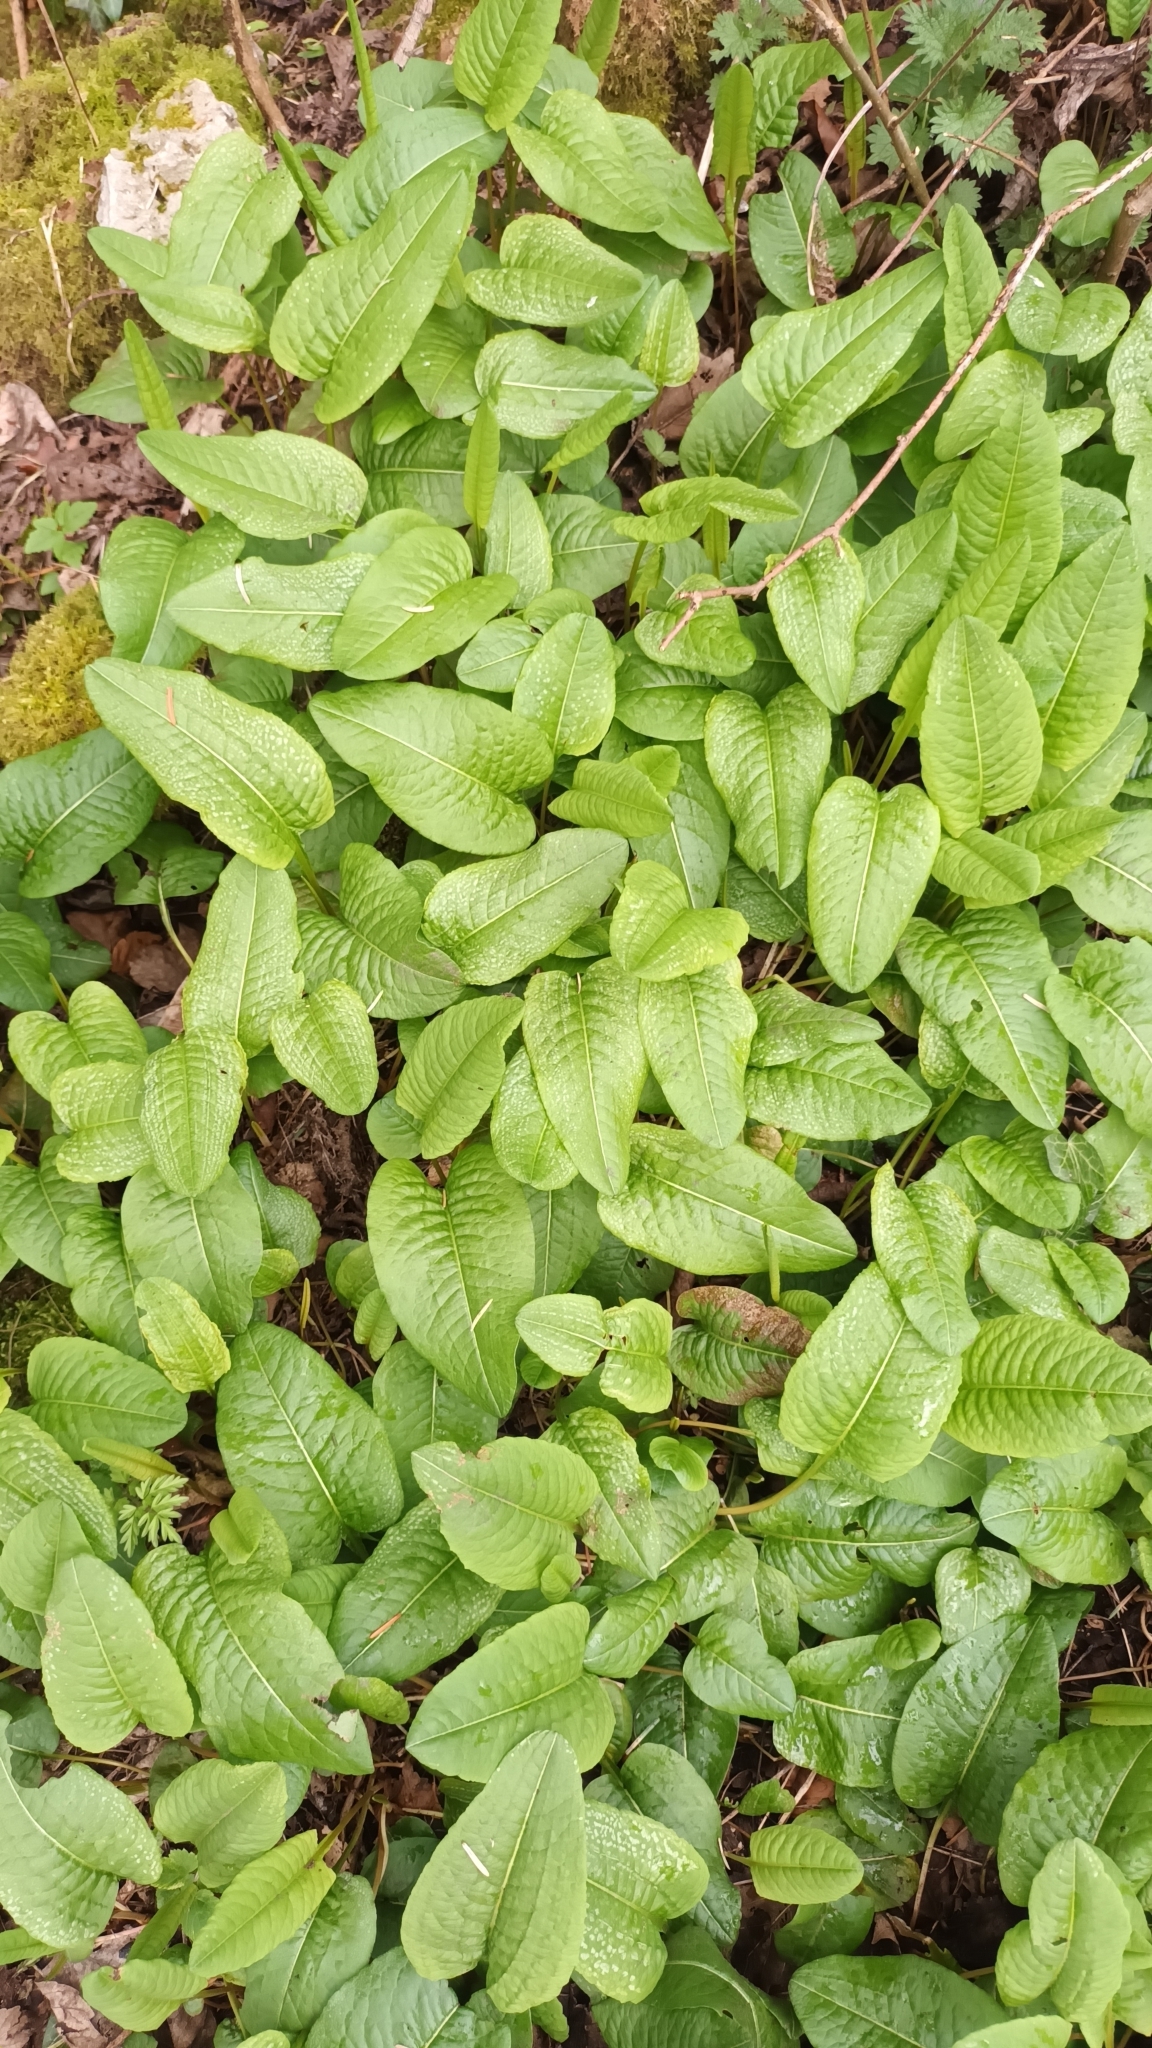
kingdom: Plantae
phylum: Tracheophyta
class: Magnoliopsida
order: Caryophyllales
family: Polygonaceae
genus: Bistorta
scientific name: Bistorta officinalis
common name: Common bistort
